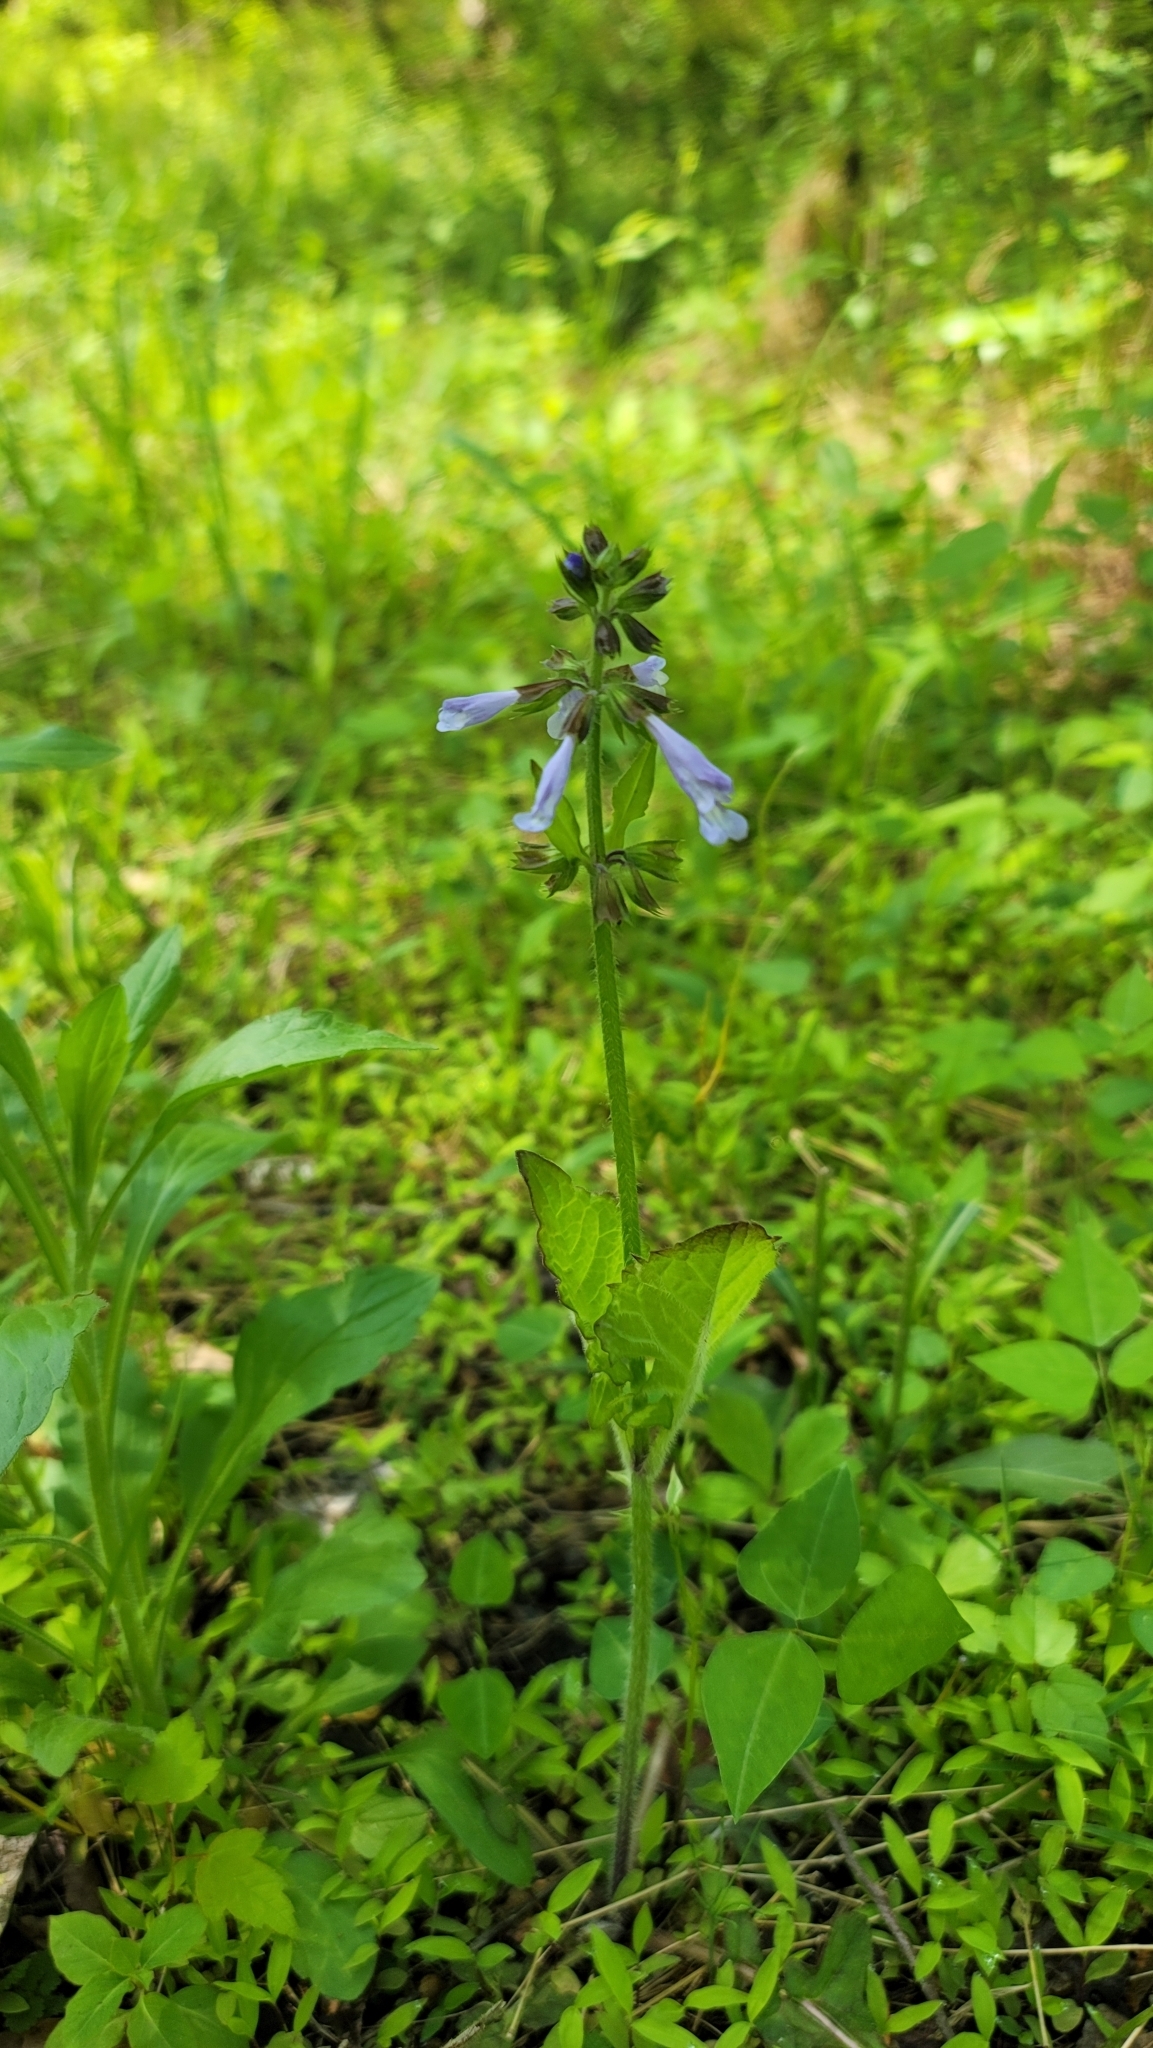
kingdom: Plantae
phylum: Tracheophyta
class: Magnoliopsida
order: Lamiales
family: Lamiaceae
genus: Salvia
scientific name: Salvia lyrata
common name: Cancerweed
